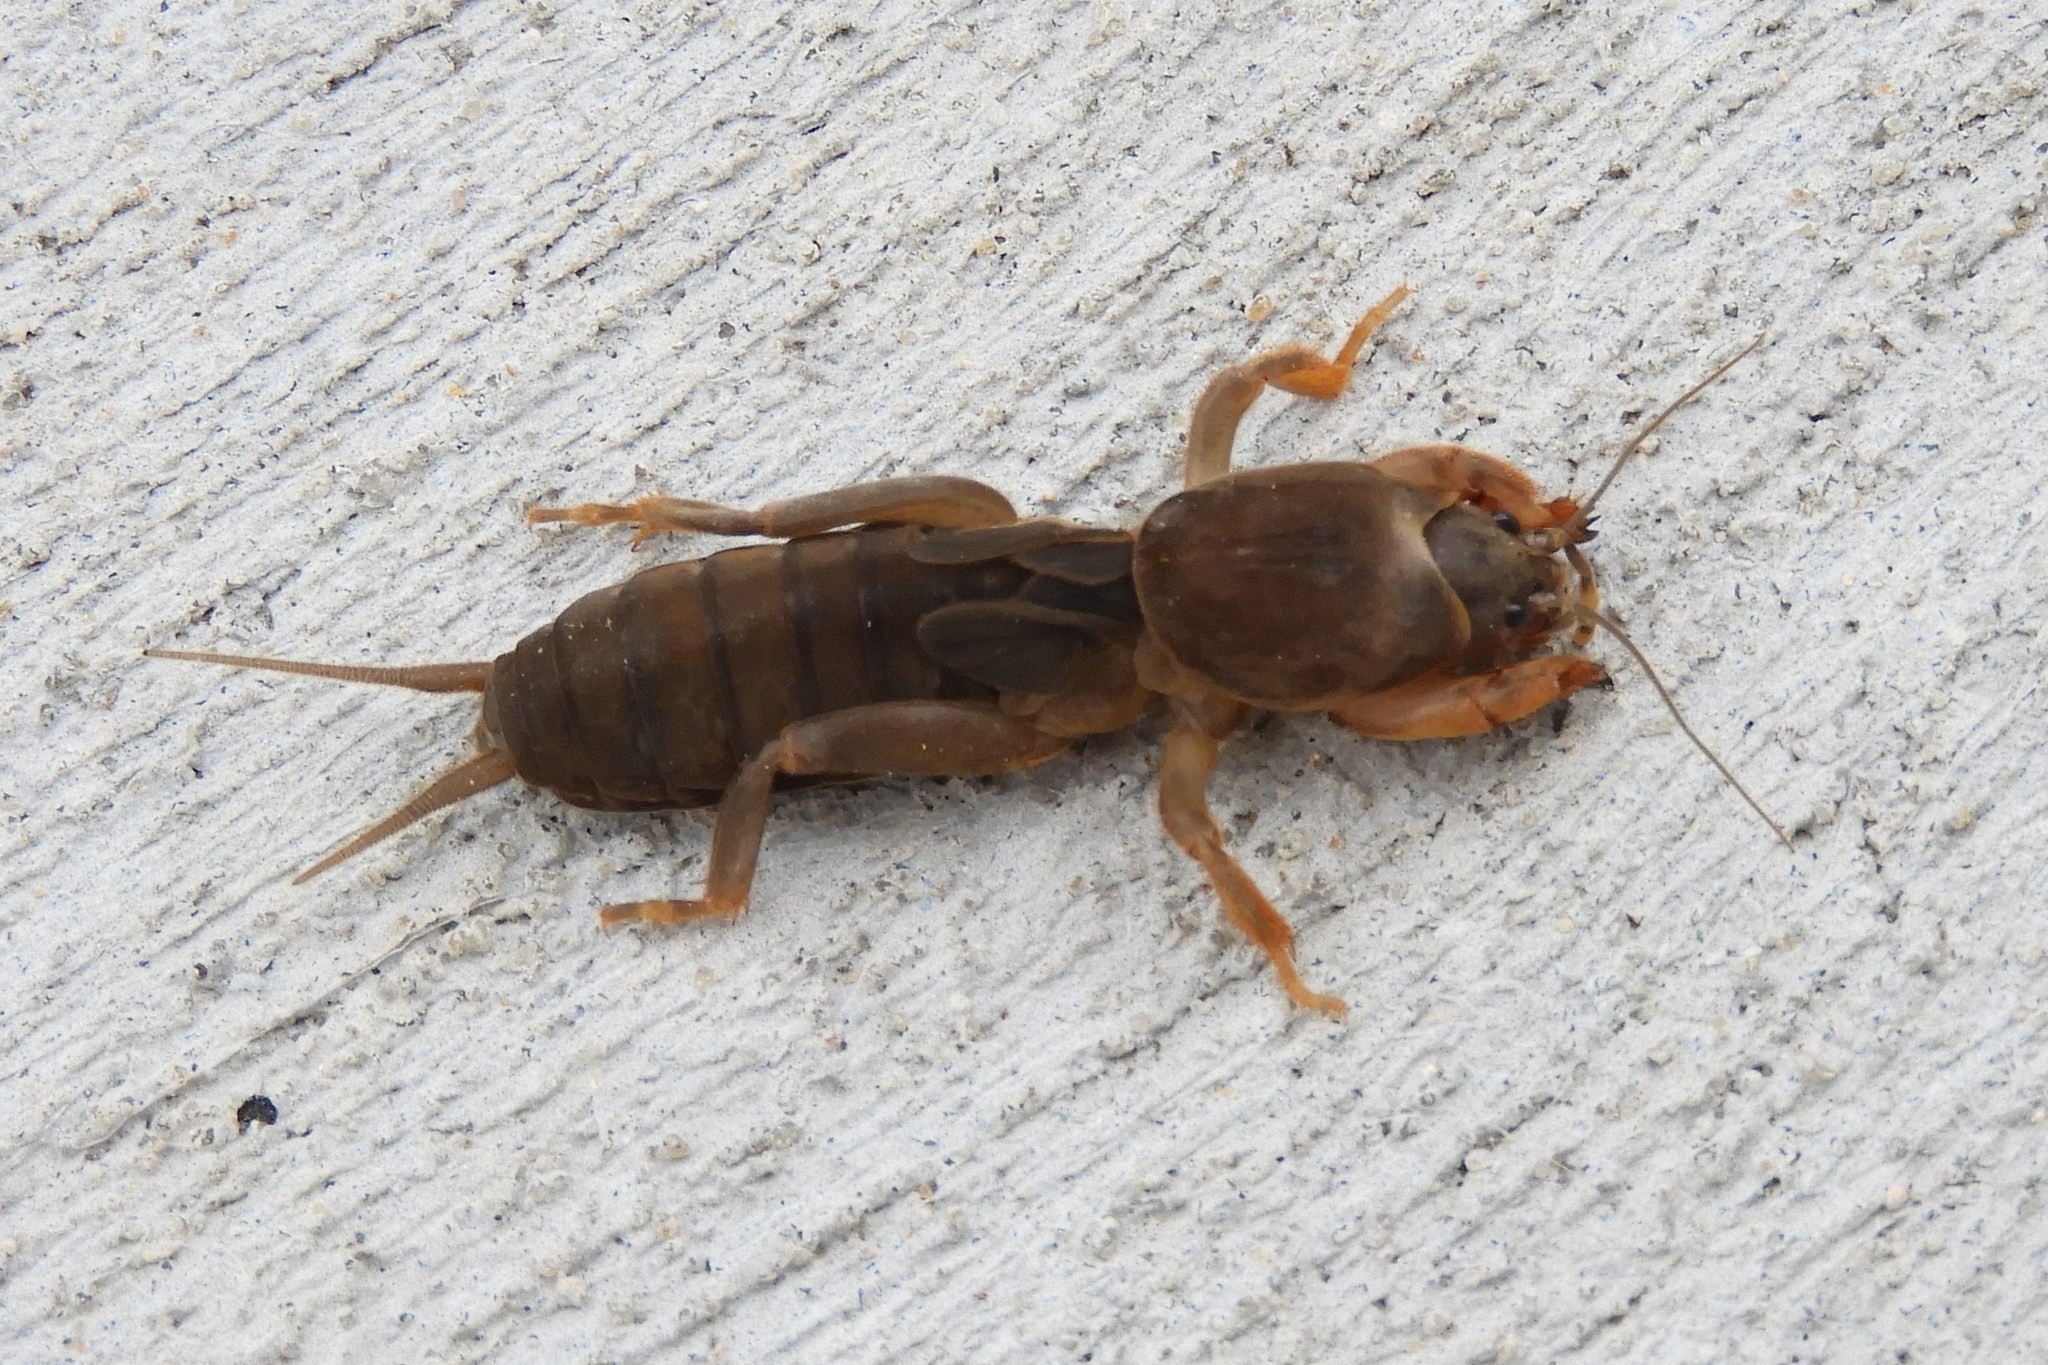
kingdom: Animalia
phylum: Arthropoda
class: Insecta
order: Orthoptera
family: Gryllotalpidae
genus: Neocurtilla
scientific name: Neocurtilla hexadactyla
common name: Northern mole cricket
